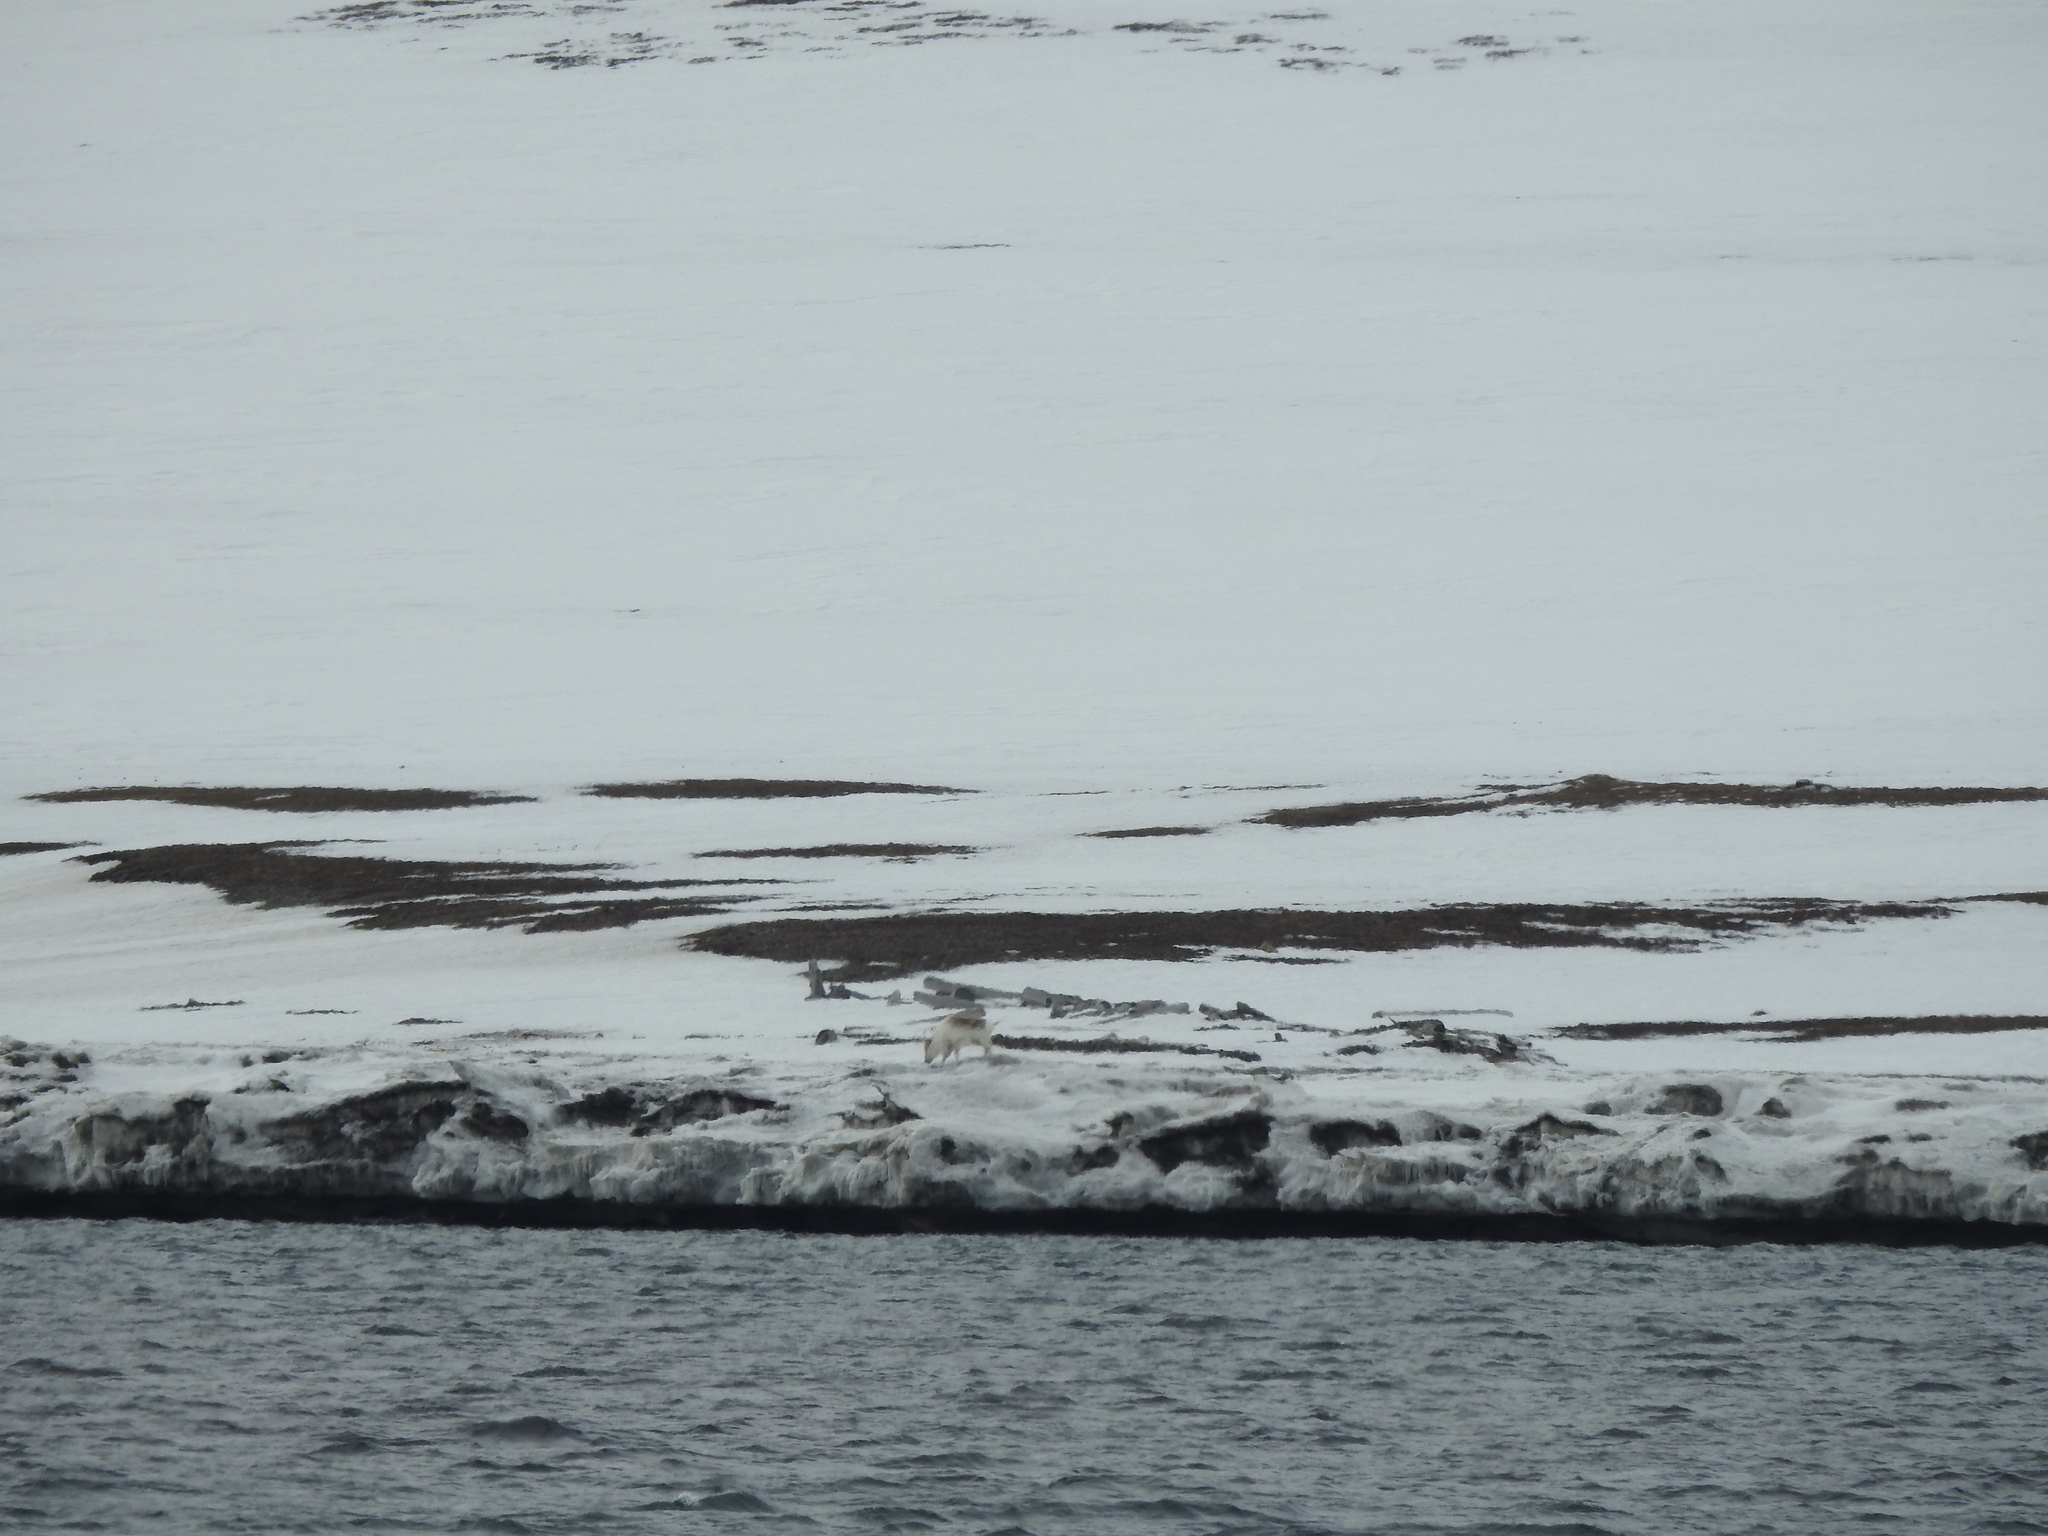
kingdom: Animalia
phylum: Chordata
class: Mammalia
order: Artiodactyla
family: Cervidae
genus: Rangifer
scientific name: Rangifer tarandus
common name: Reindeer
